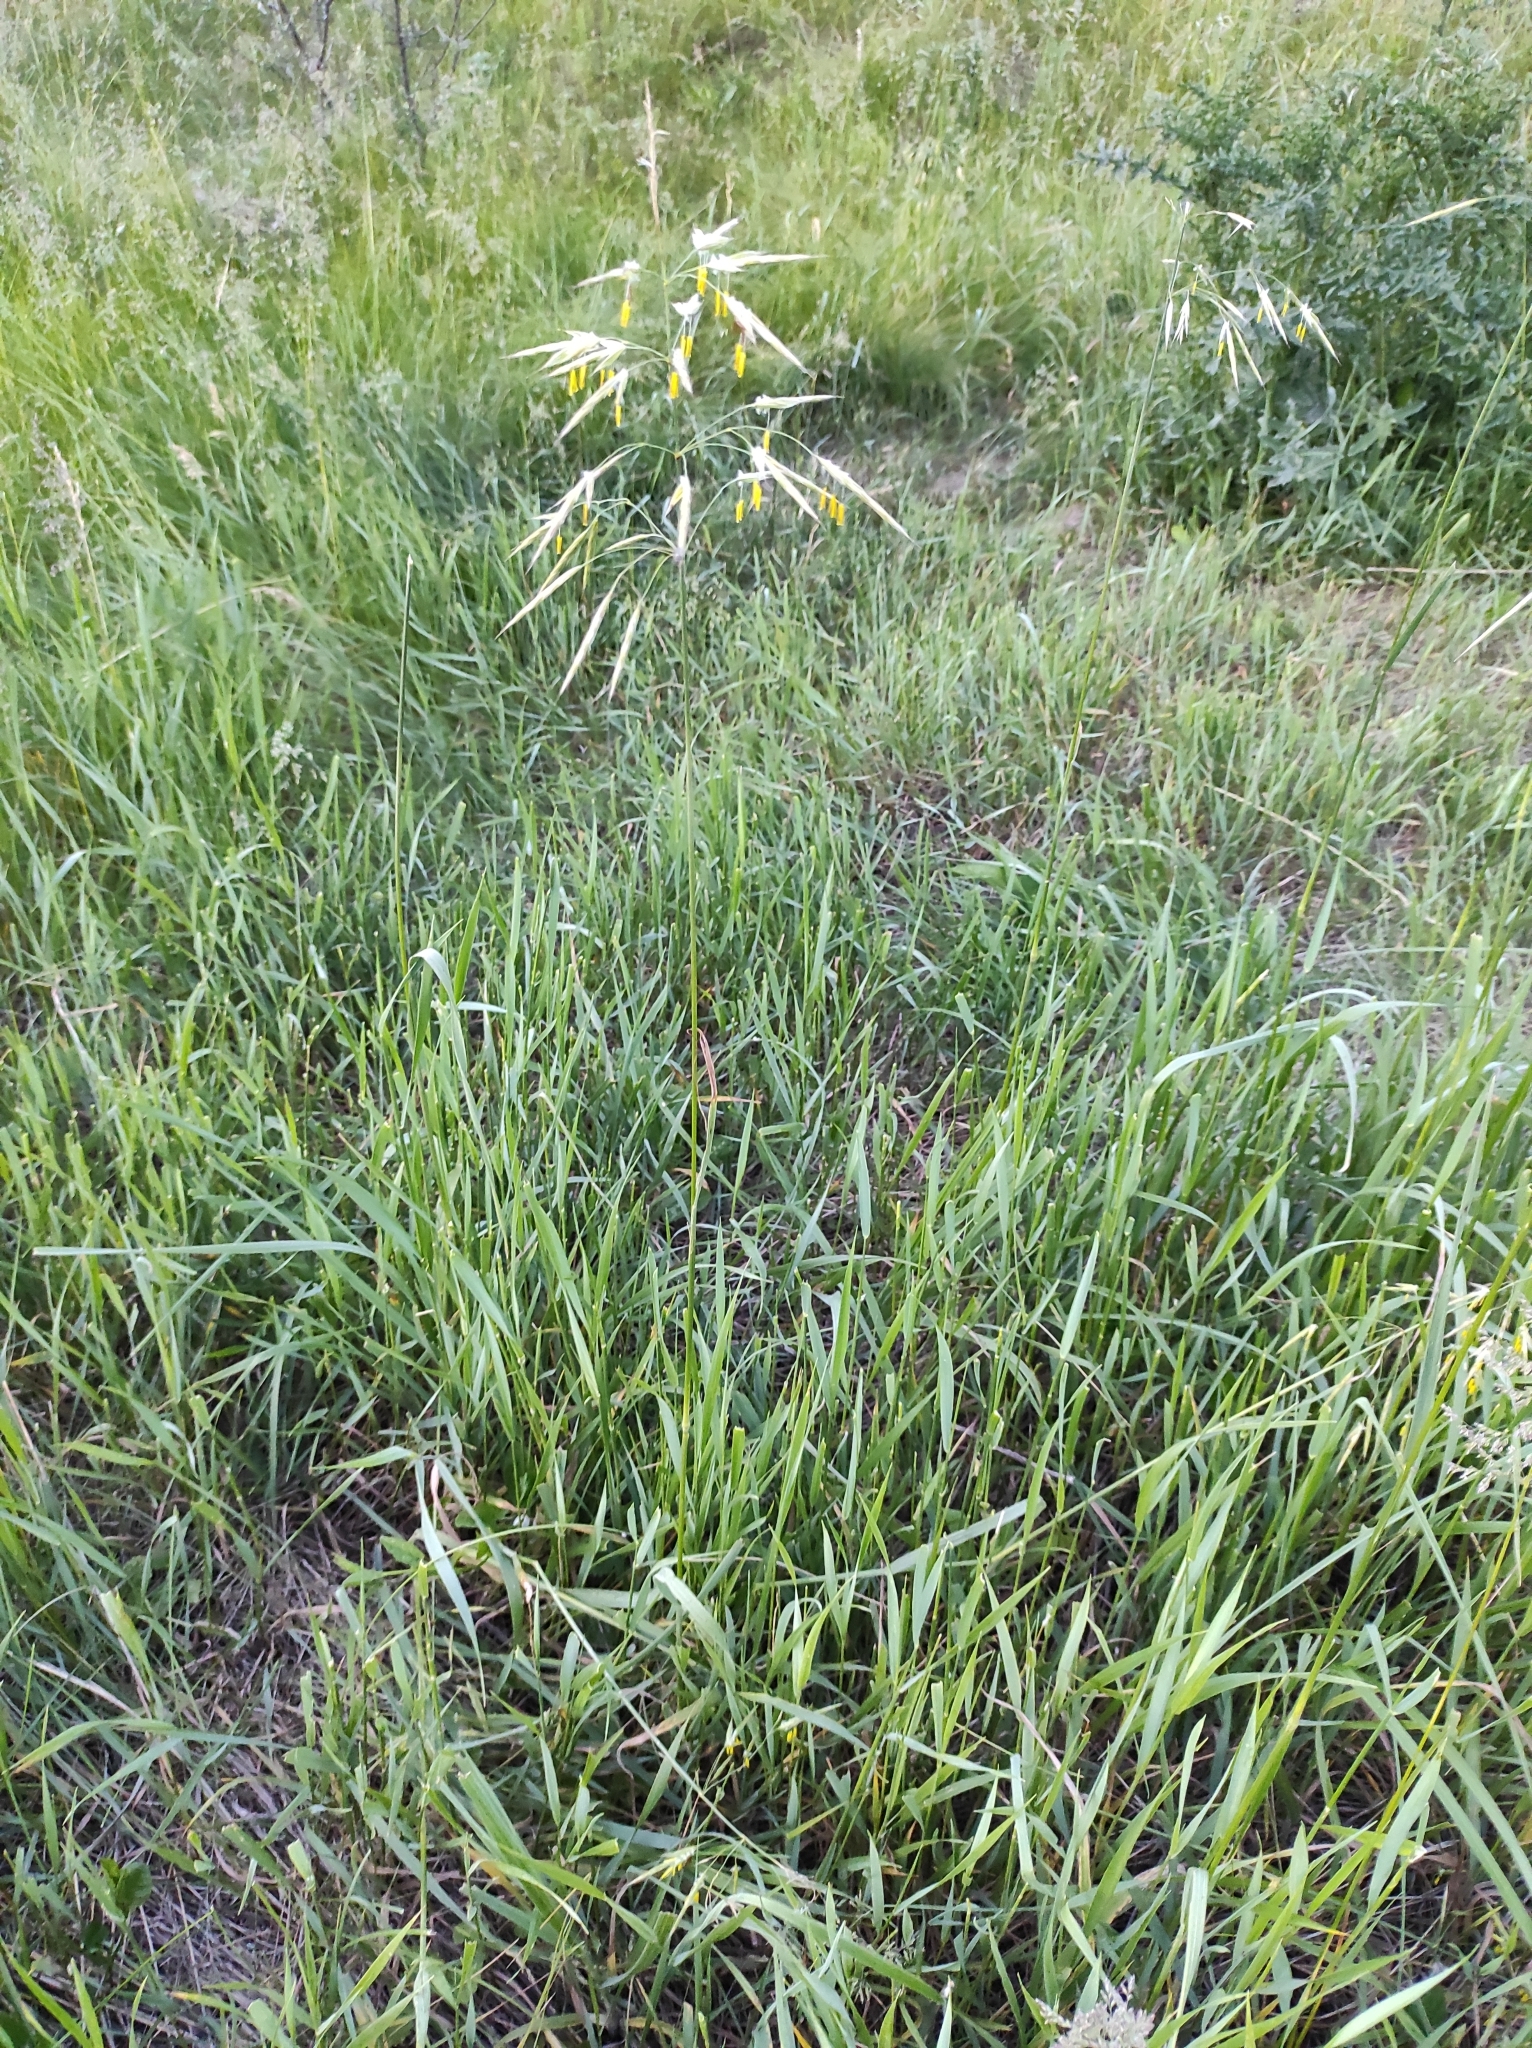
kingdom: Plantae
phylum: Tracheophyta
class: Liliopsida
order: Poales
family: Poaceae
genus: Bromus
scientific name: Bromus inermis
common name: Smooth brome
